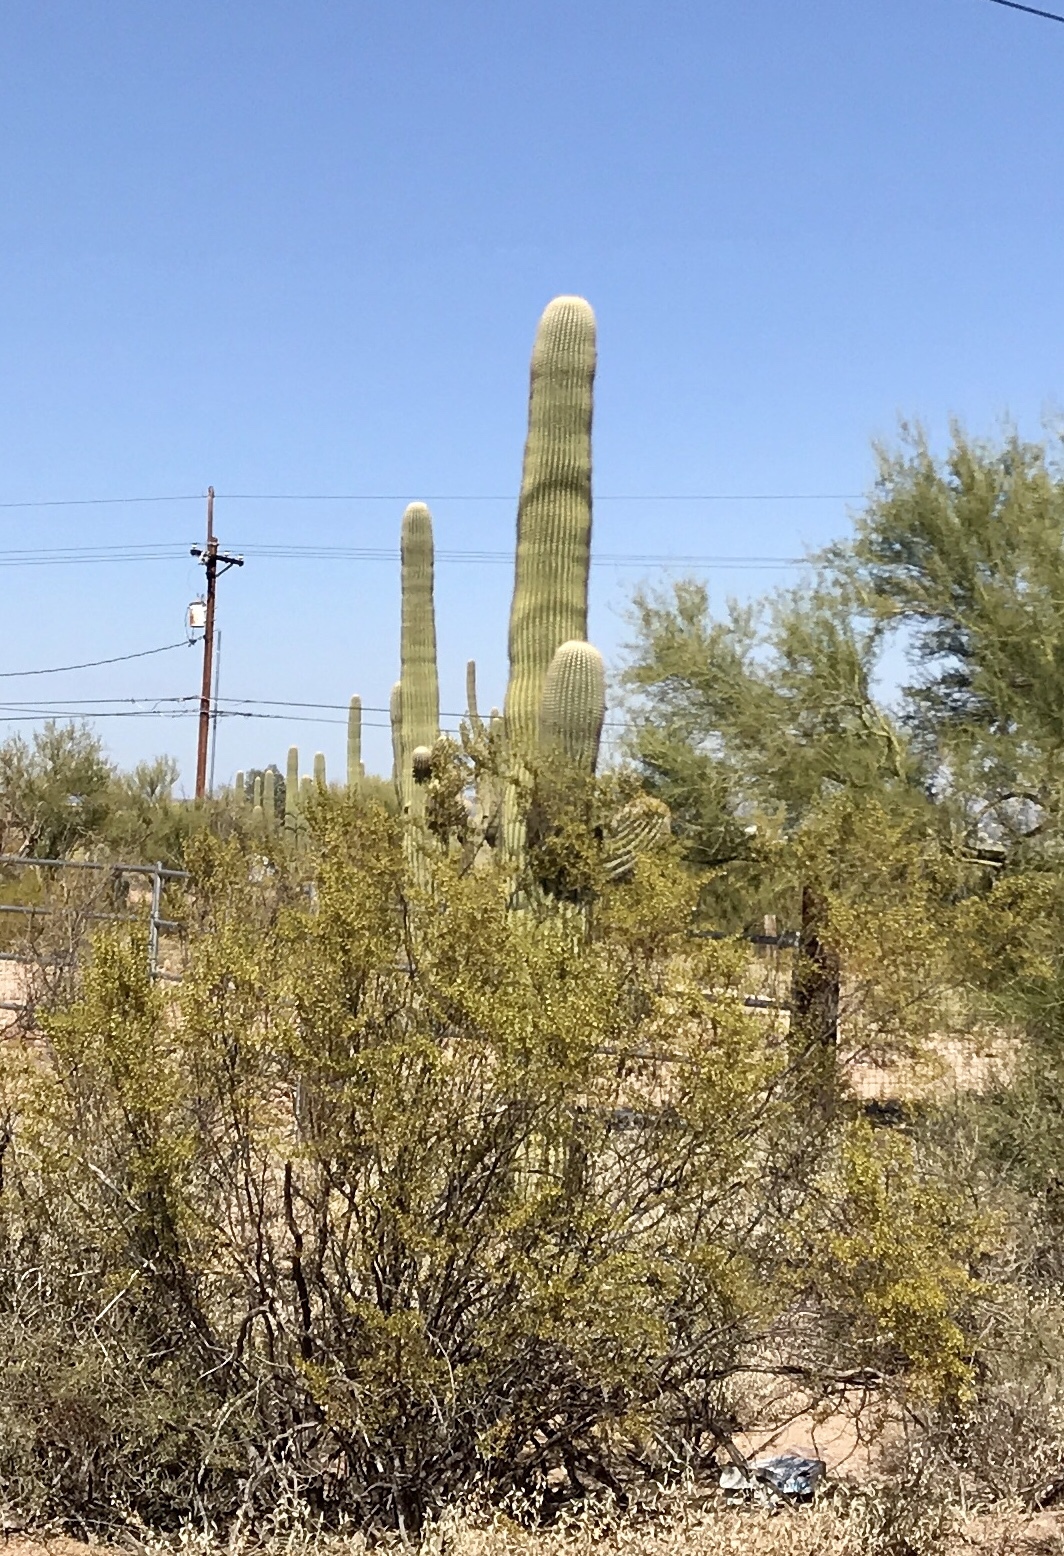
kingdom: Plantae
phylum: Tracheophyta
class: Magnoliopsida
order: Caryophyllales
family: Cactaceae
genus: Carnegiea
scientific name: Carnegiea gigantea
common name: Saguaro
